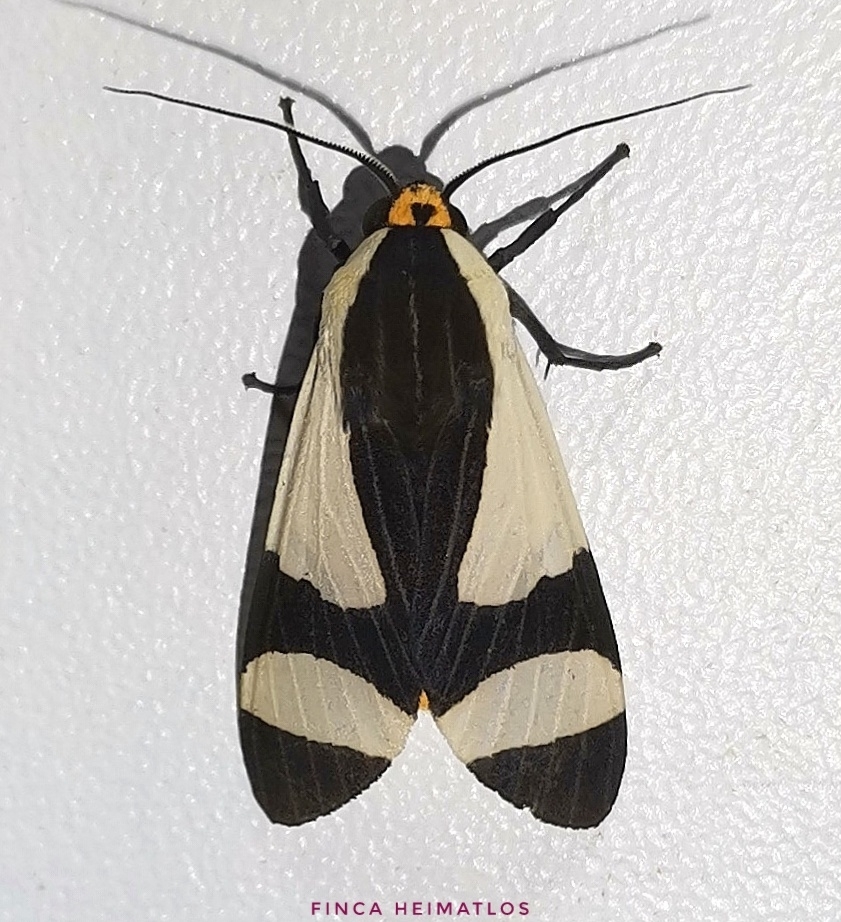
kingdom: Animalia
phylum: Arthropoda
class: Insecta
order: Lepidoptera
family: Erebidae
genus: Pryteria
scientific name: Pryteria alboatra
